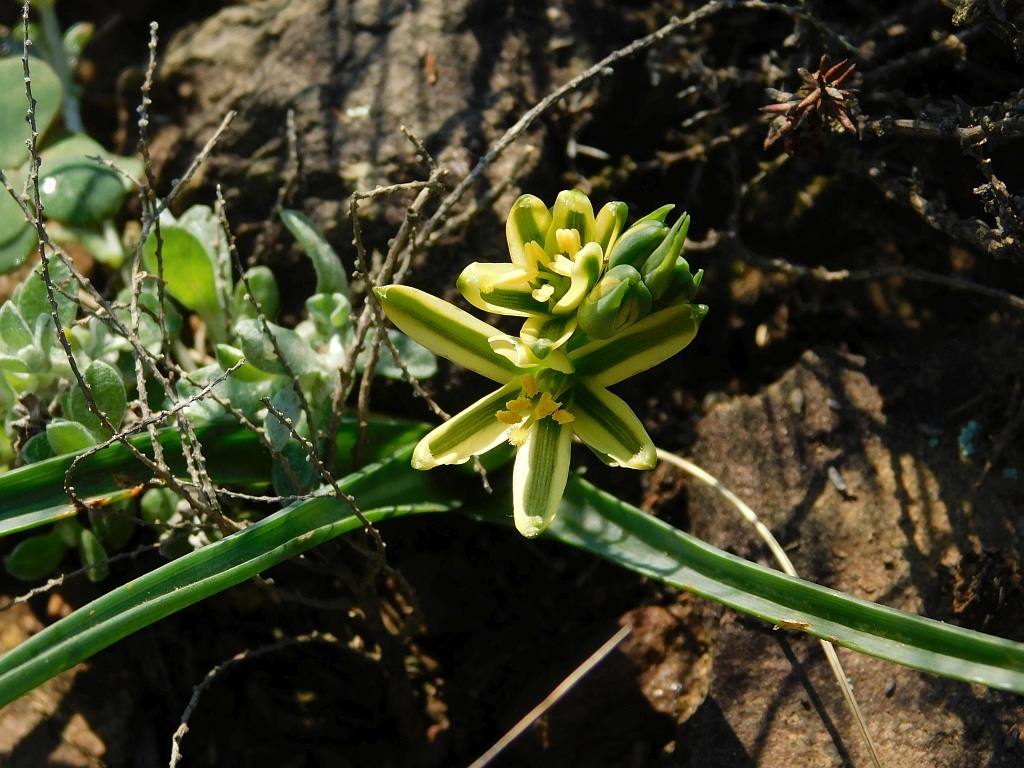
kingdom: Plantae
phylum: Tracheophyta
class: Liliopsida
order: Asparagales
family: Asparagaceae
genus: Albuca
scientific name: Albuca suaveolens
